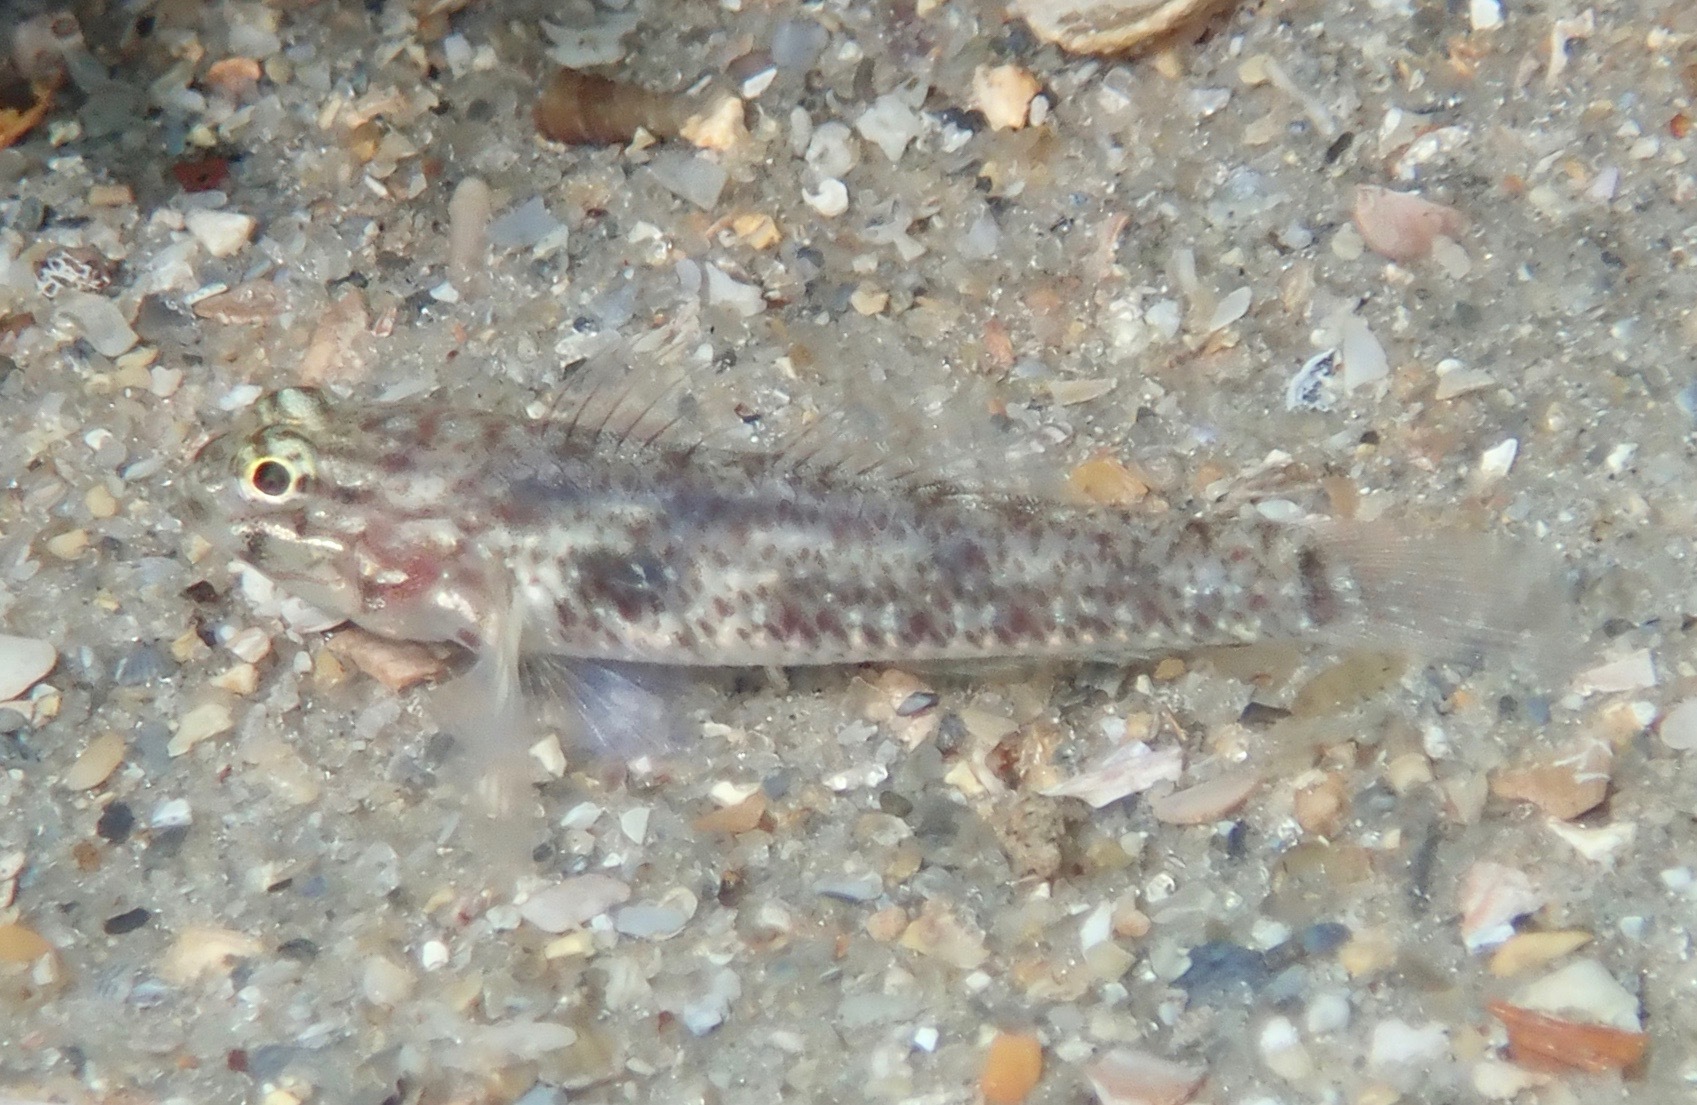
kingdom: Animalia
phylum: Chordata
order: Perciformes
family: Gobiidae
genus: Coryphopterus
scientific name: Coryphopterus dicrus
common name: Colon goby
